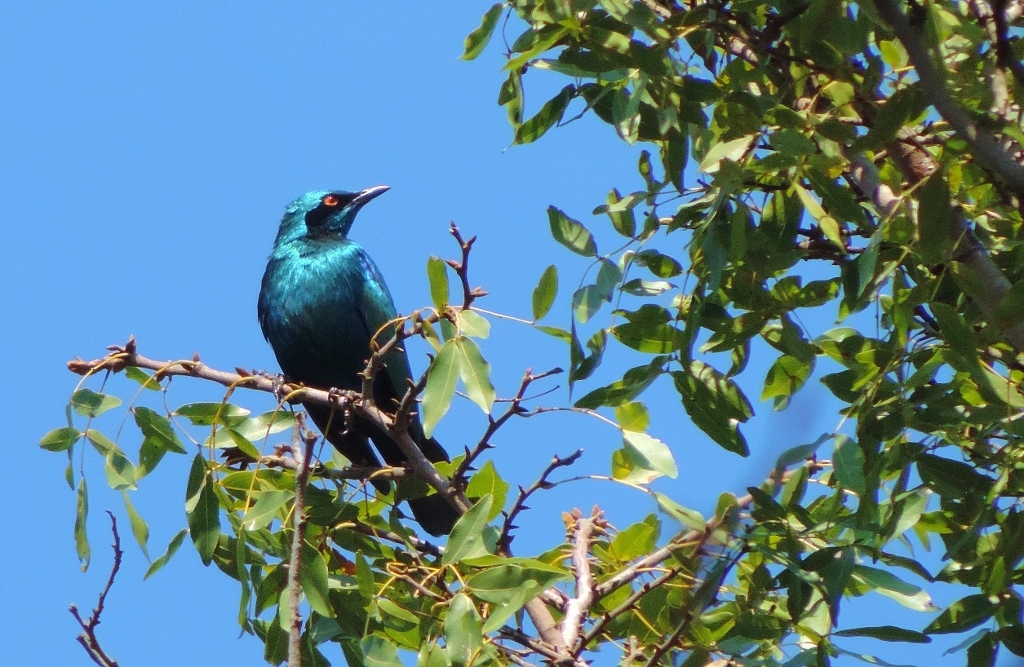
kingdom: Animalia
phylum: Chordata
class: Aves
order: Passeriformes
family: Sturnidae
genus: Lamprotornis
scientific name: Lamprotornis chloropterus
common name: Lesser blue-eared starling
